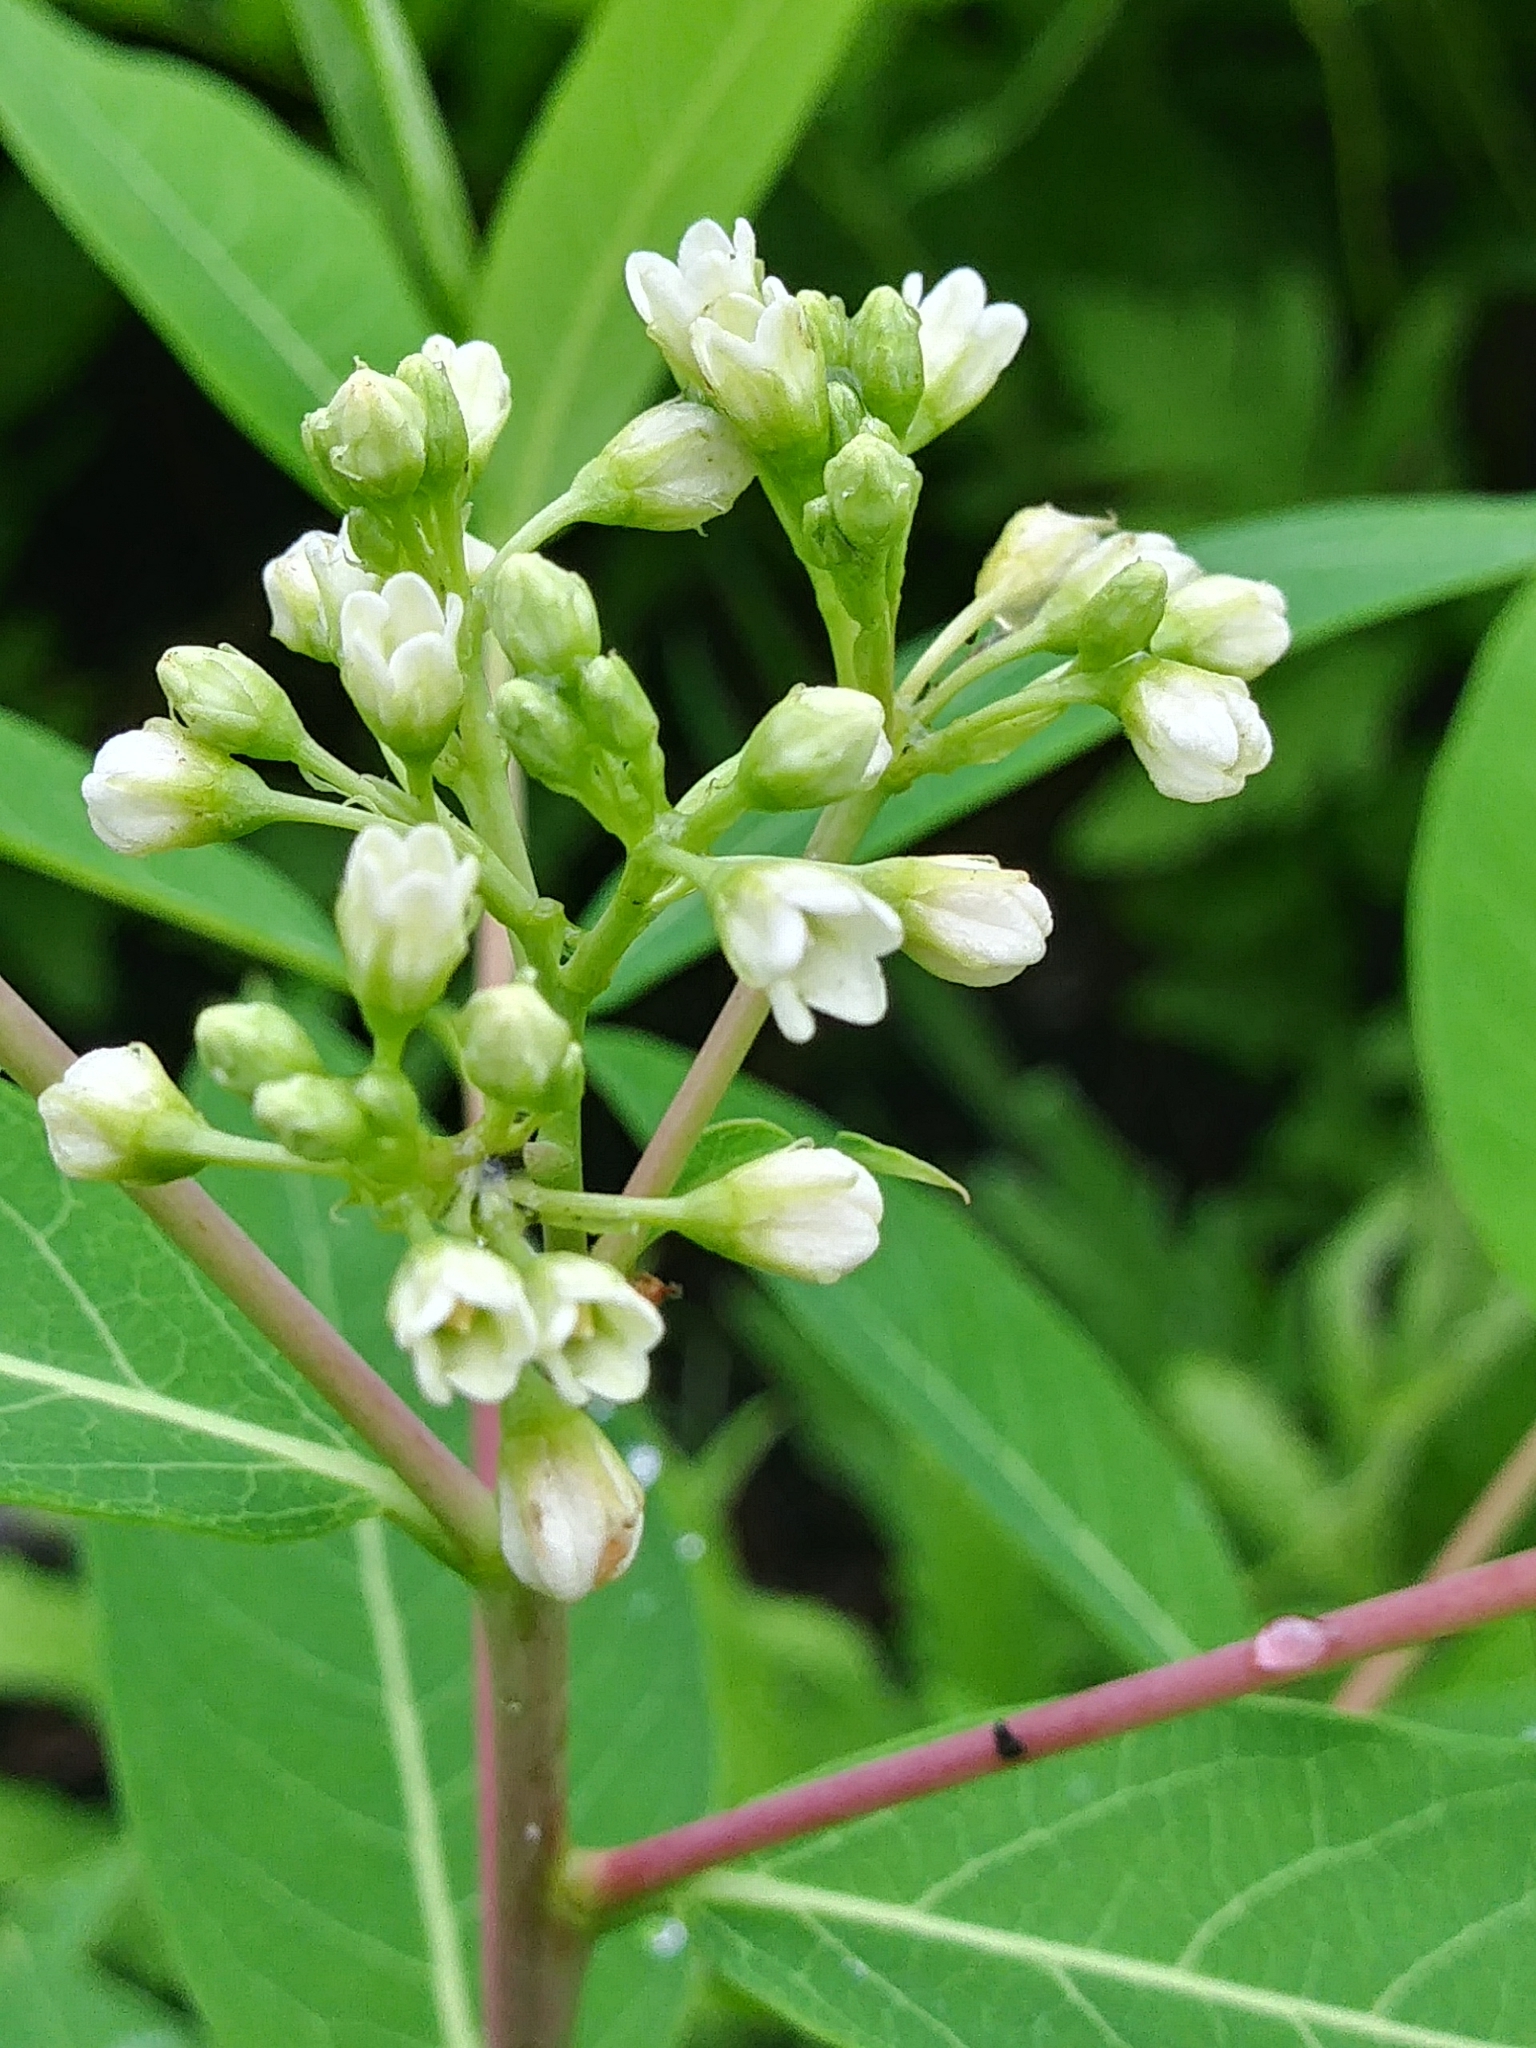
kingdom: Plantae
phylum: Tracheophyta
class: Magnoliopsida
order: Gentianales
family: Apocynaceae
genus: Apocynum
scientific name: Apocynum cannabinum
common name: Hemp dogbane
